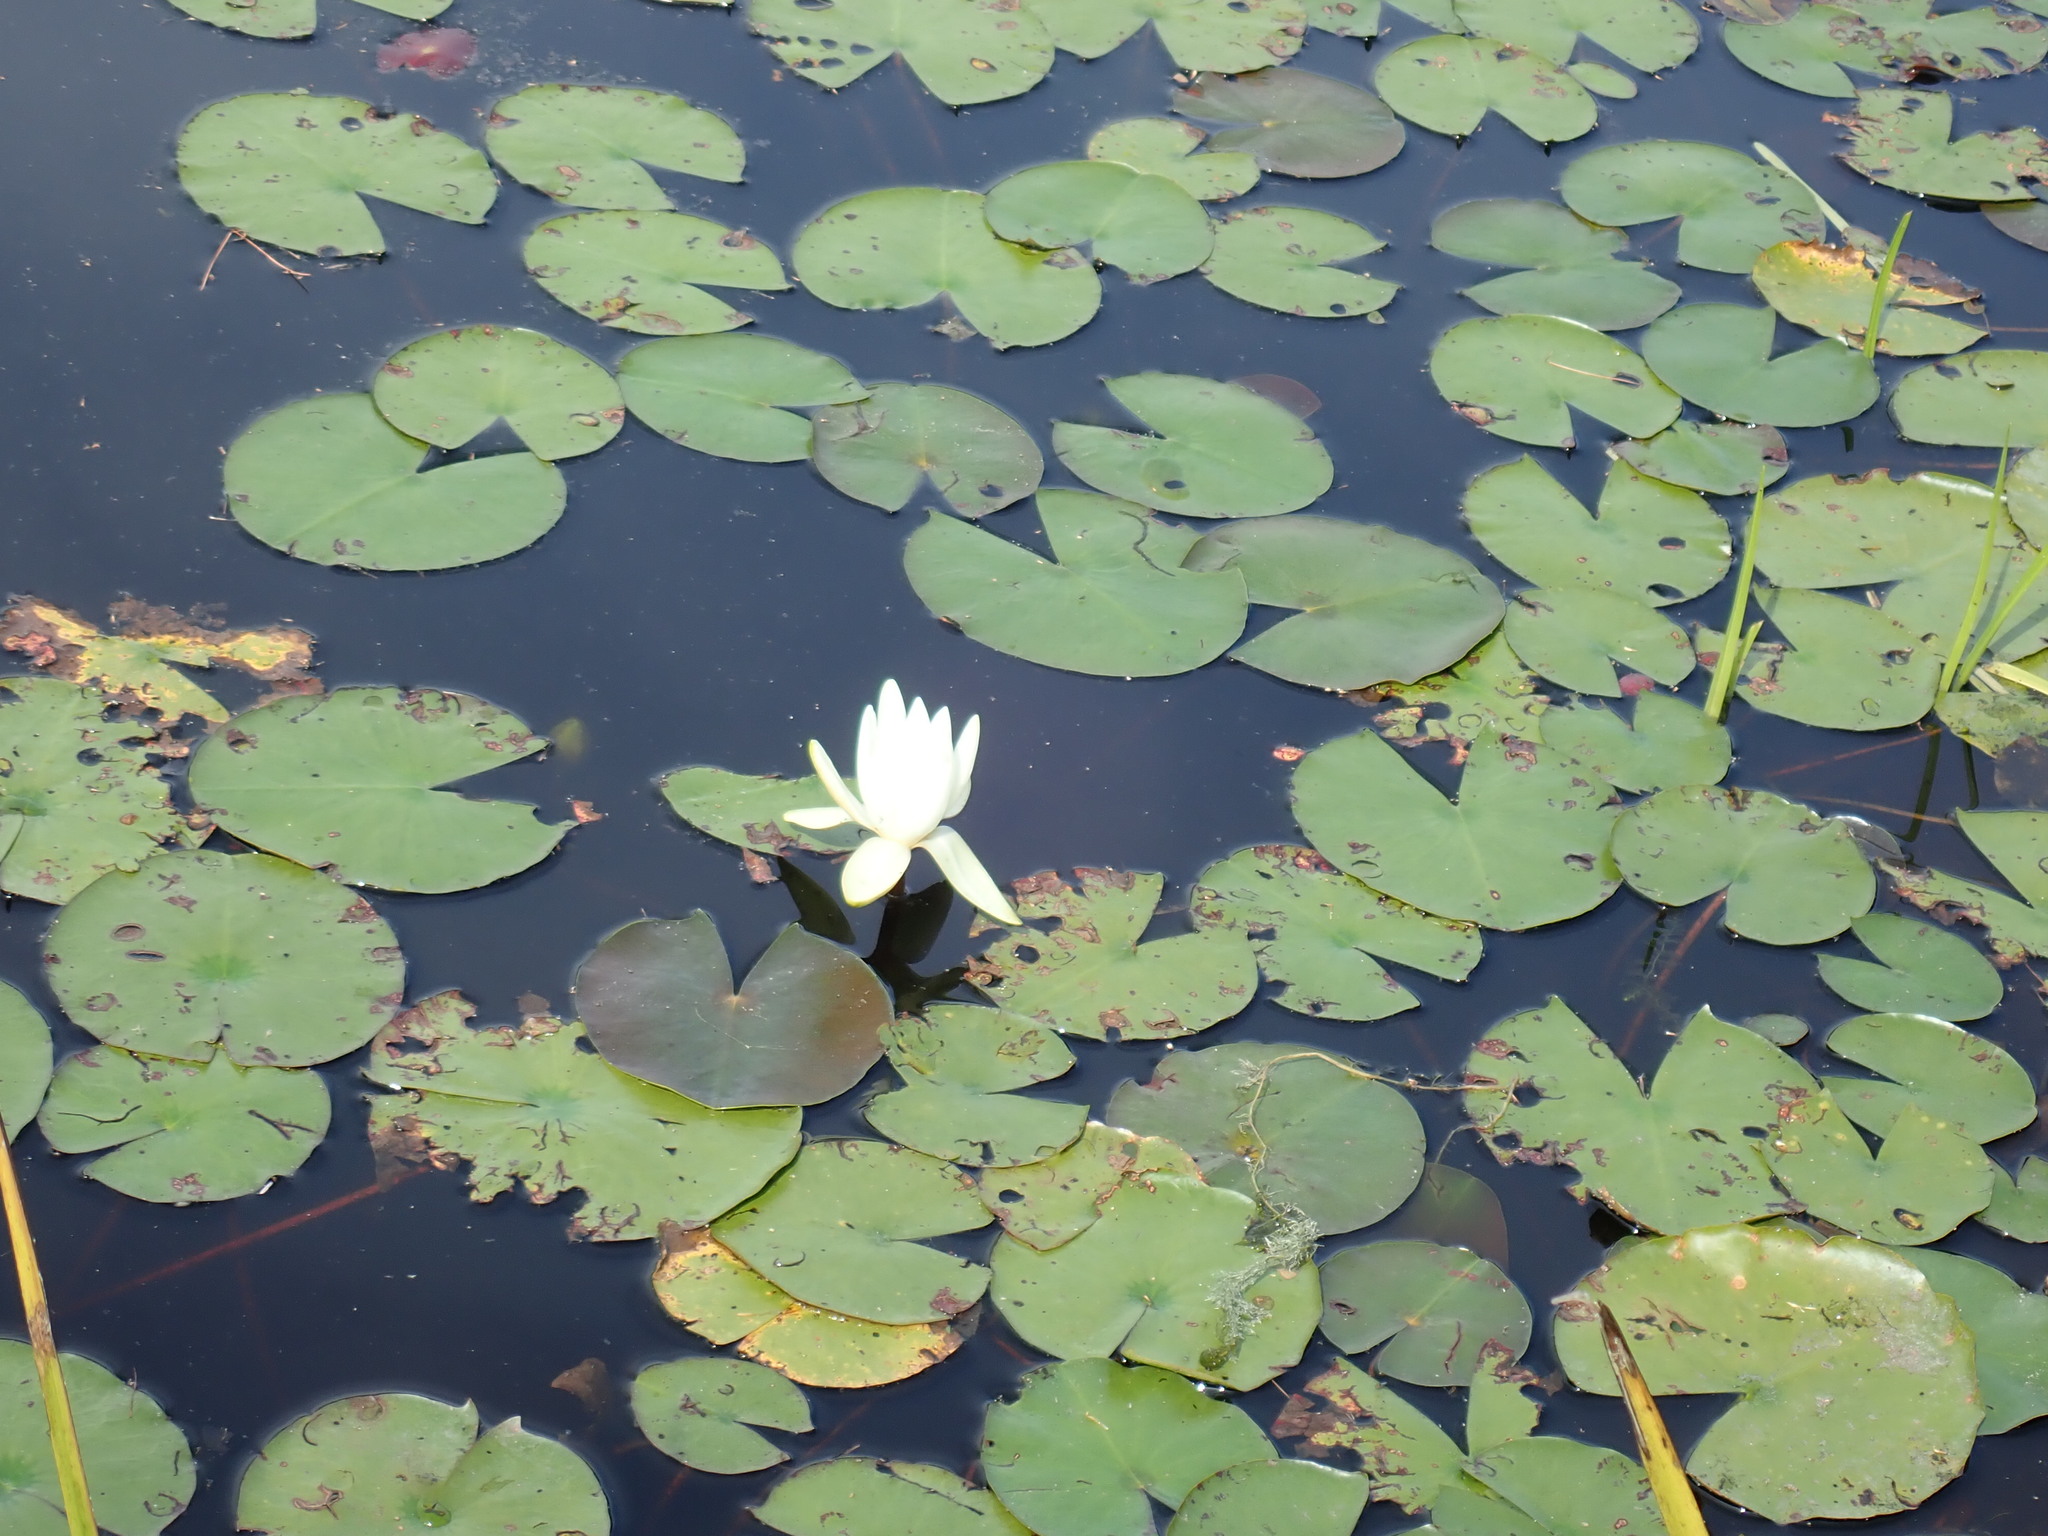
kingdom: Plantae
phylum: Tracheophyta
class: Magnoliopsida
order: Nymphaeales
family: Nymphaeaceae
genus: Nymphaea
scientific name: Nymphaea odorata
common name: Fragrant water-lily
